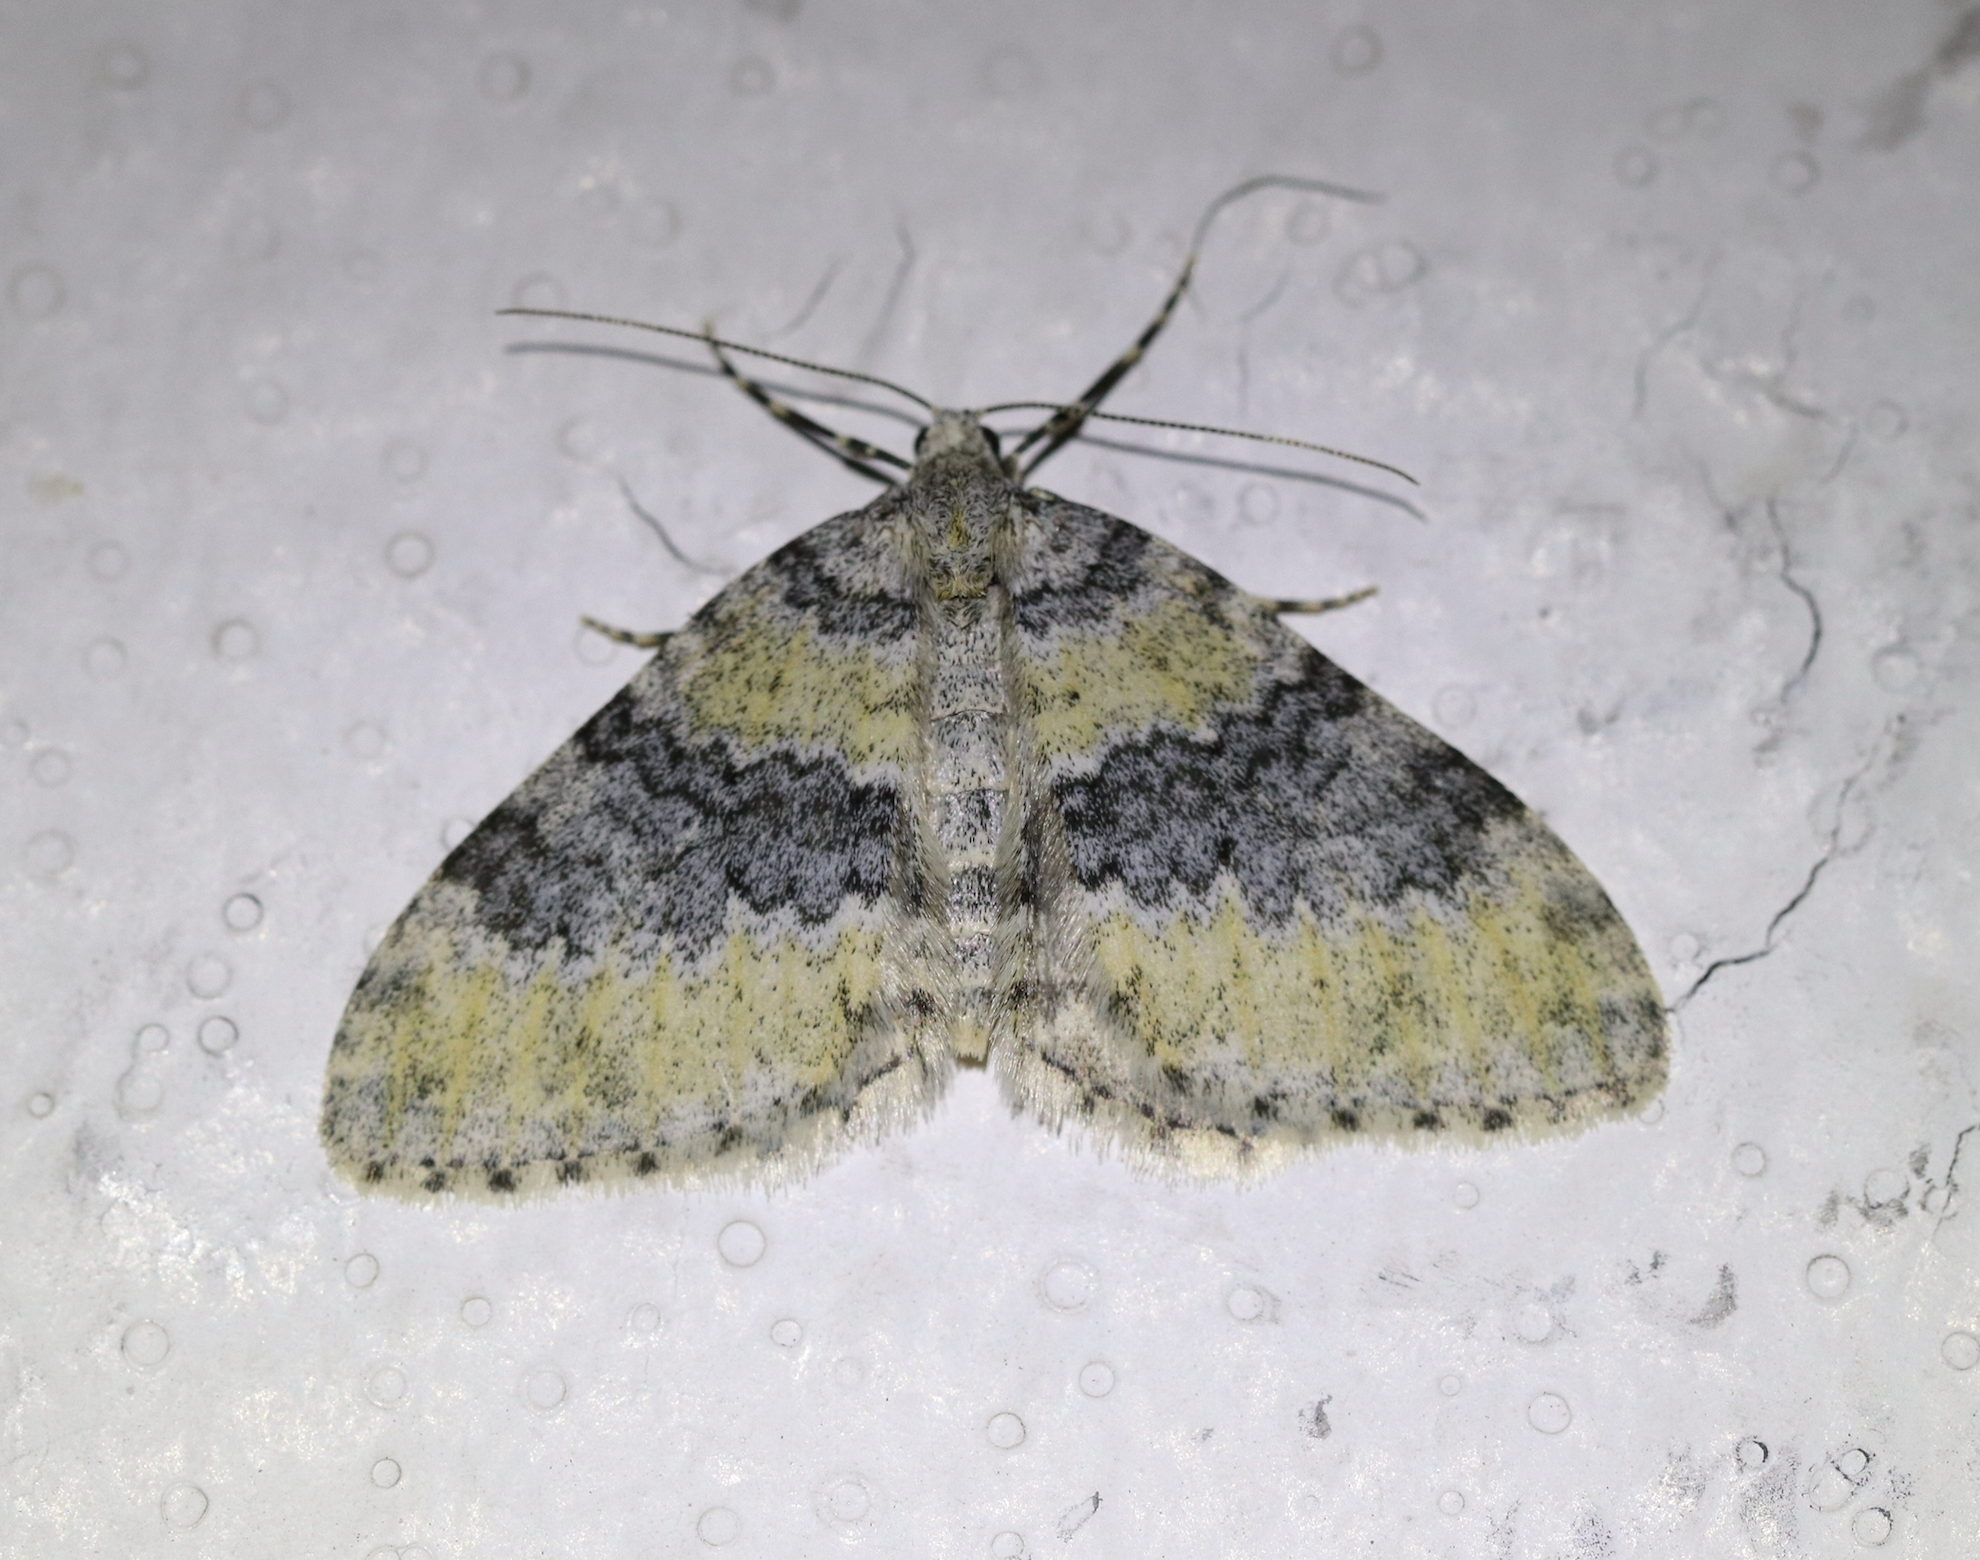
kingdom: Animalia
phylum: Arthropoda
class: Insecta
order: Lepidoptera
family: Geometridae
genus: Entephria
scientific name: Entephria cyanata
